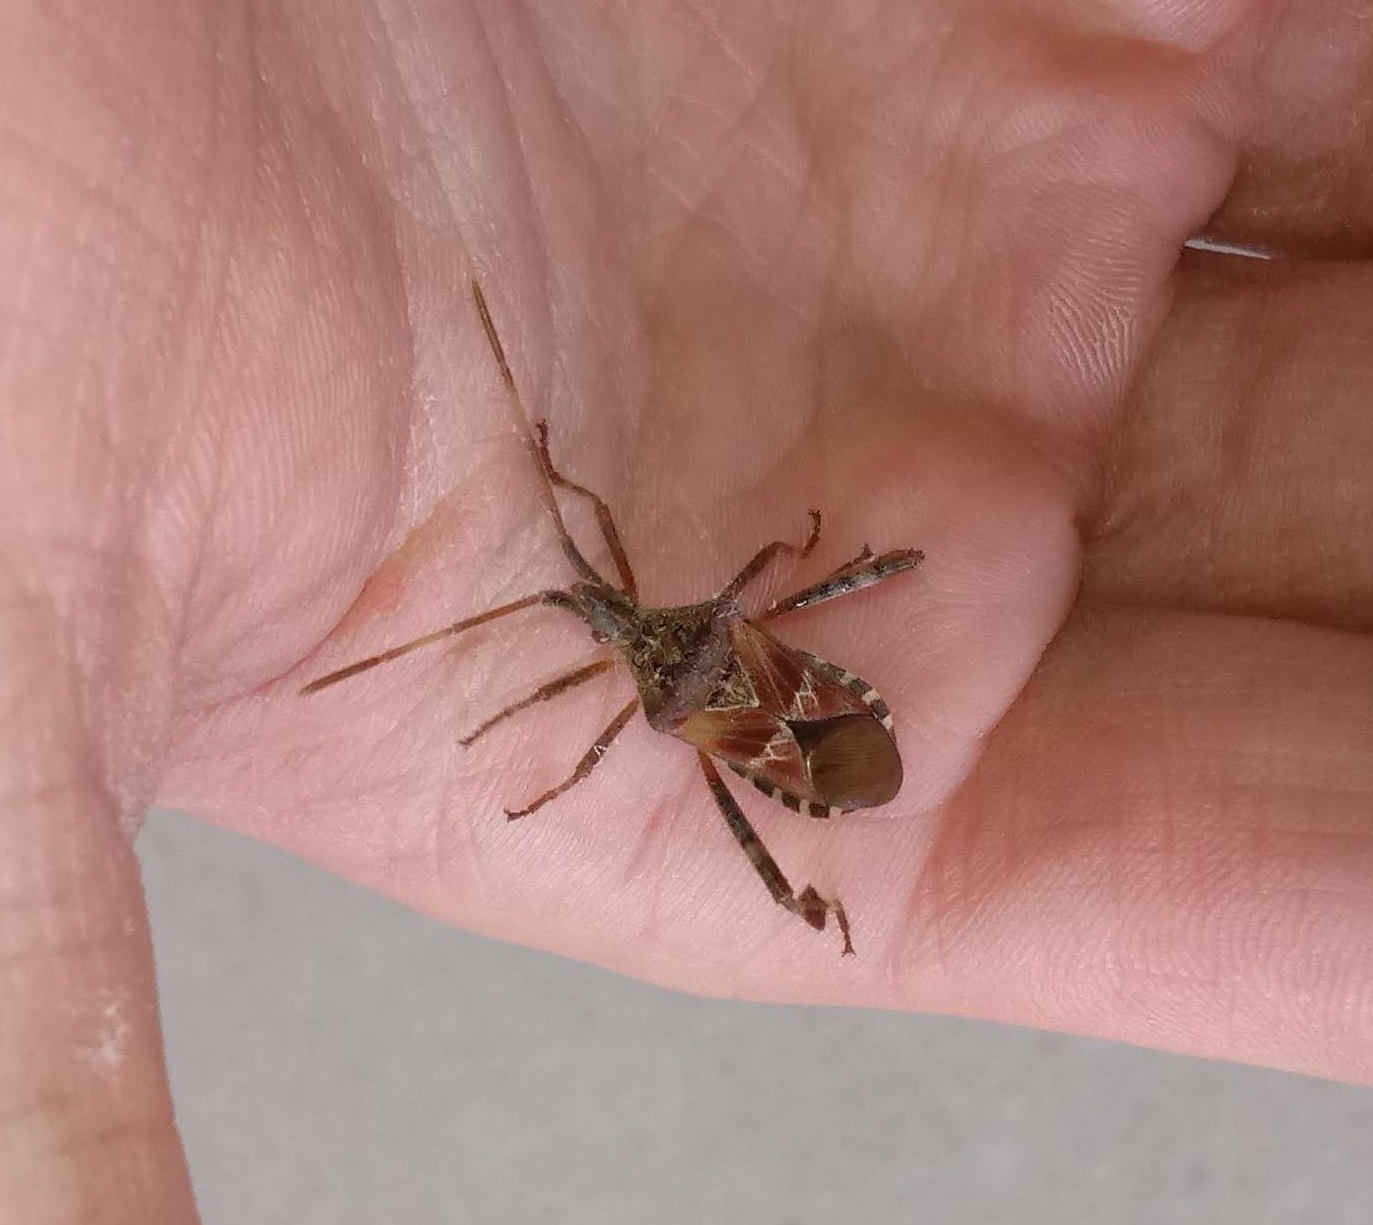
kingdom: Animalia
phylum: Arthropoda
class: Insecta
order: Hemiptera
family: Coreidae
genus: Leptoglossus
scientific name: Leptoglossus occidentalis
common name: Western conifer-seed bug
